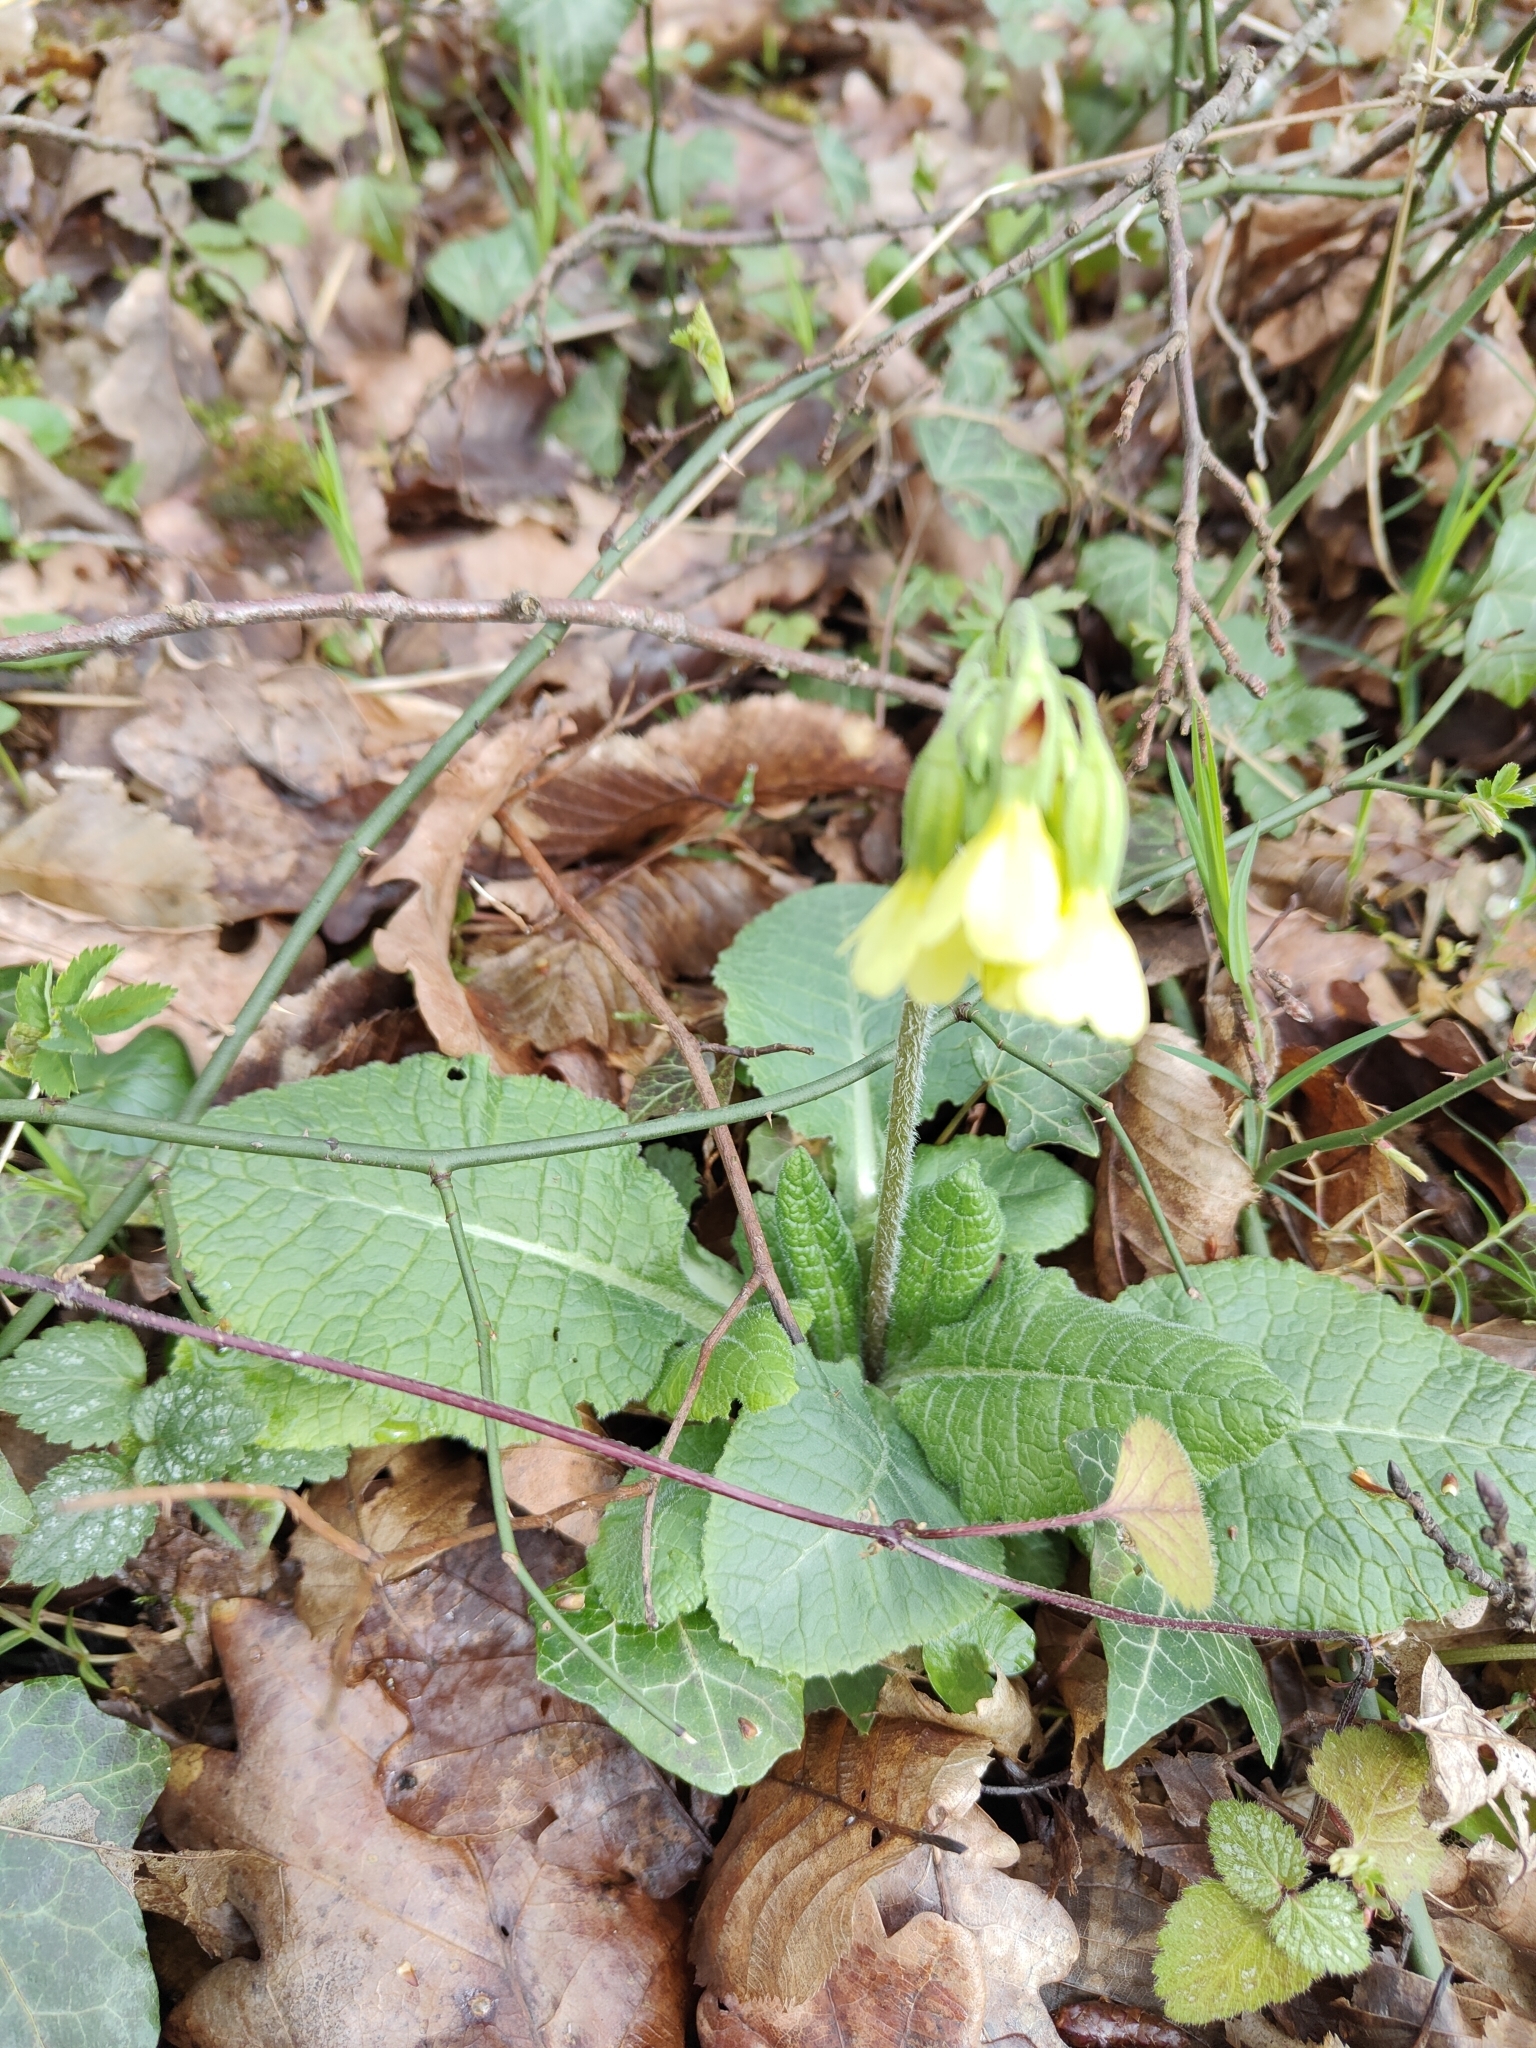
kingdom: Plantae
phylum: Tracheophyta
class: Magnoliopsida
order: Ericales
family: Primulaceae
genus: Primula
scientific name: Primula elatior
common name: Oxlip
